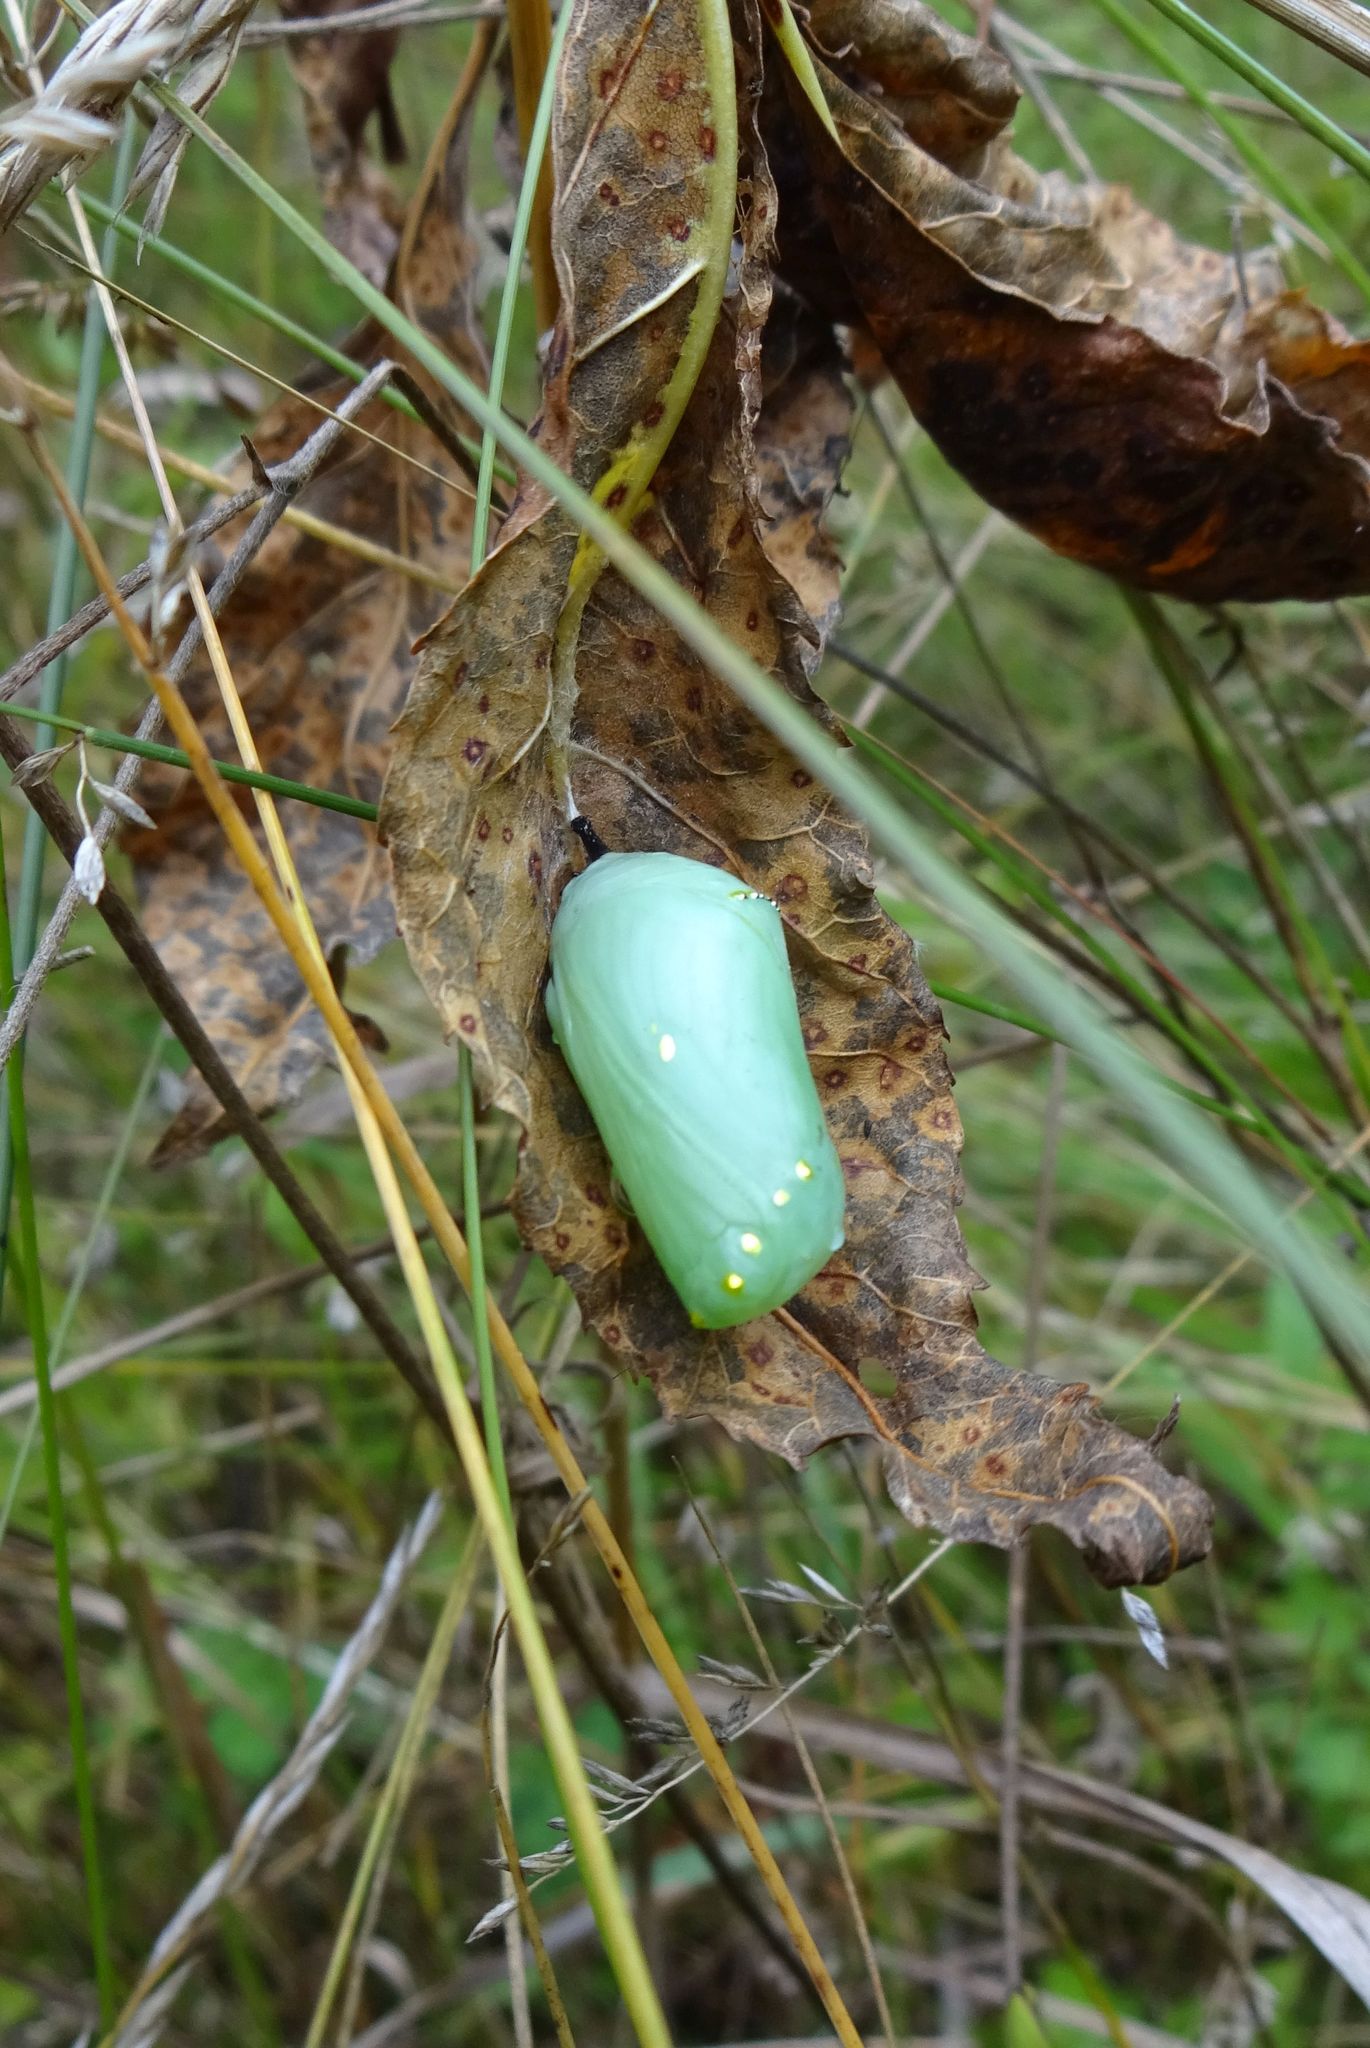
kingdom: Animalia
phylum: Arthropoda
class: Insecta
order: Lepidoptera
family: Nymphalidae
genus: Danaus
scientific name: Danaus plexippus
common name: Monarch
